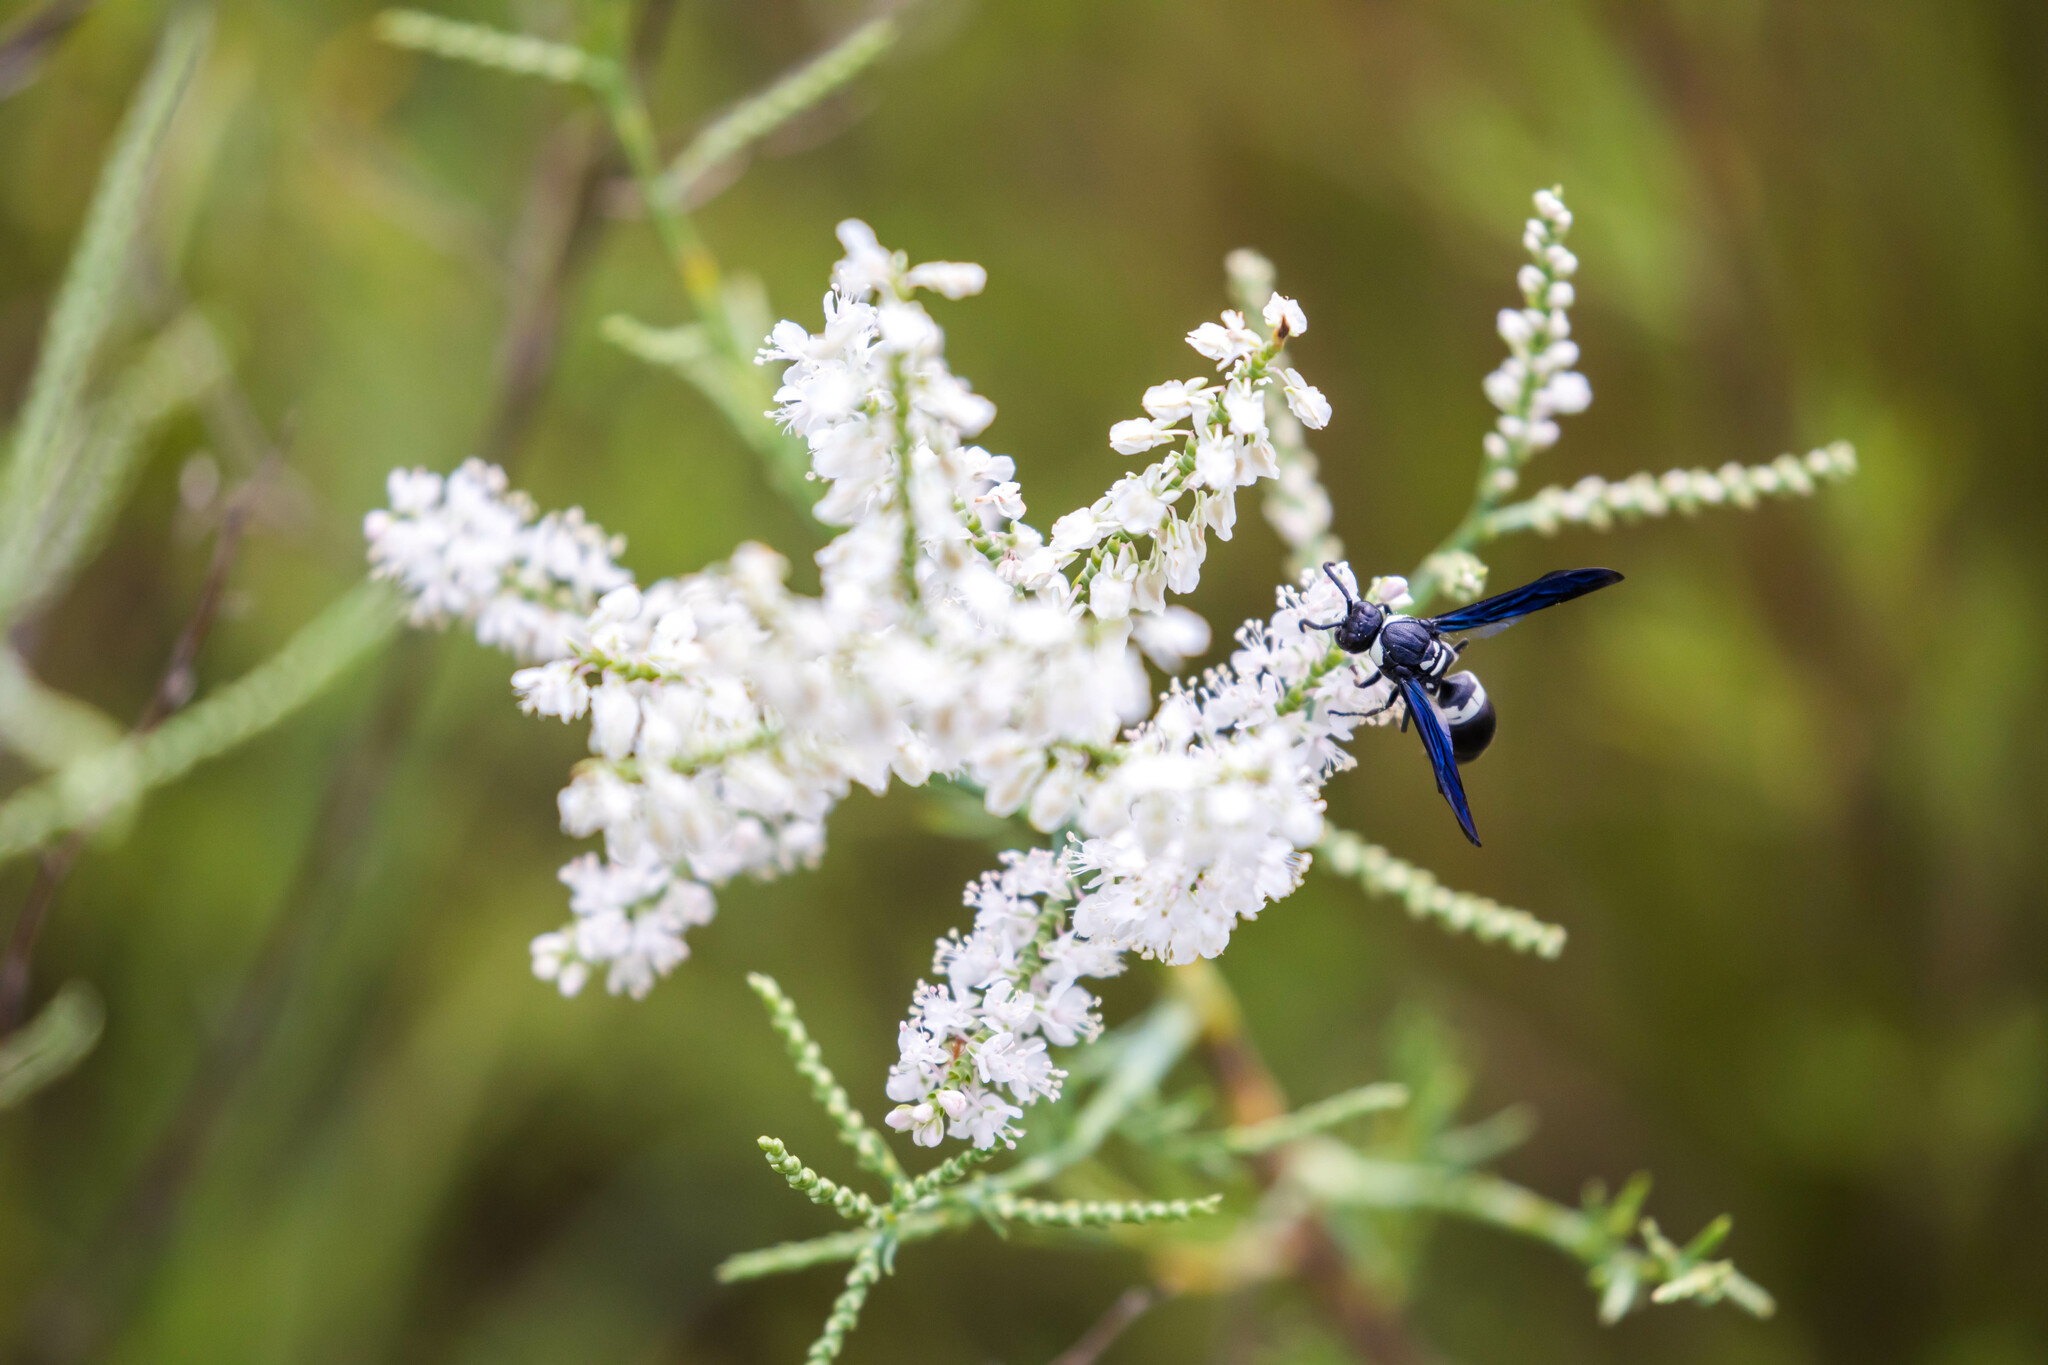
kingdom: Animalia
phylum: Arthropoda
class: Insecta
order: Hymenoptera
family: Eumenidae
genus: Monobia
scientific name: Monobia quadridens
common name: Four-toothed mason wasp
